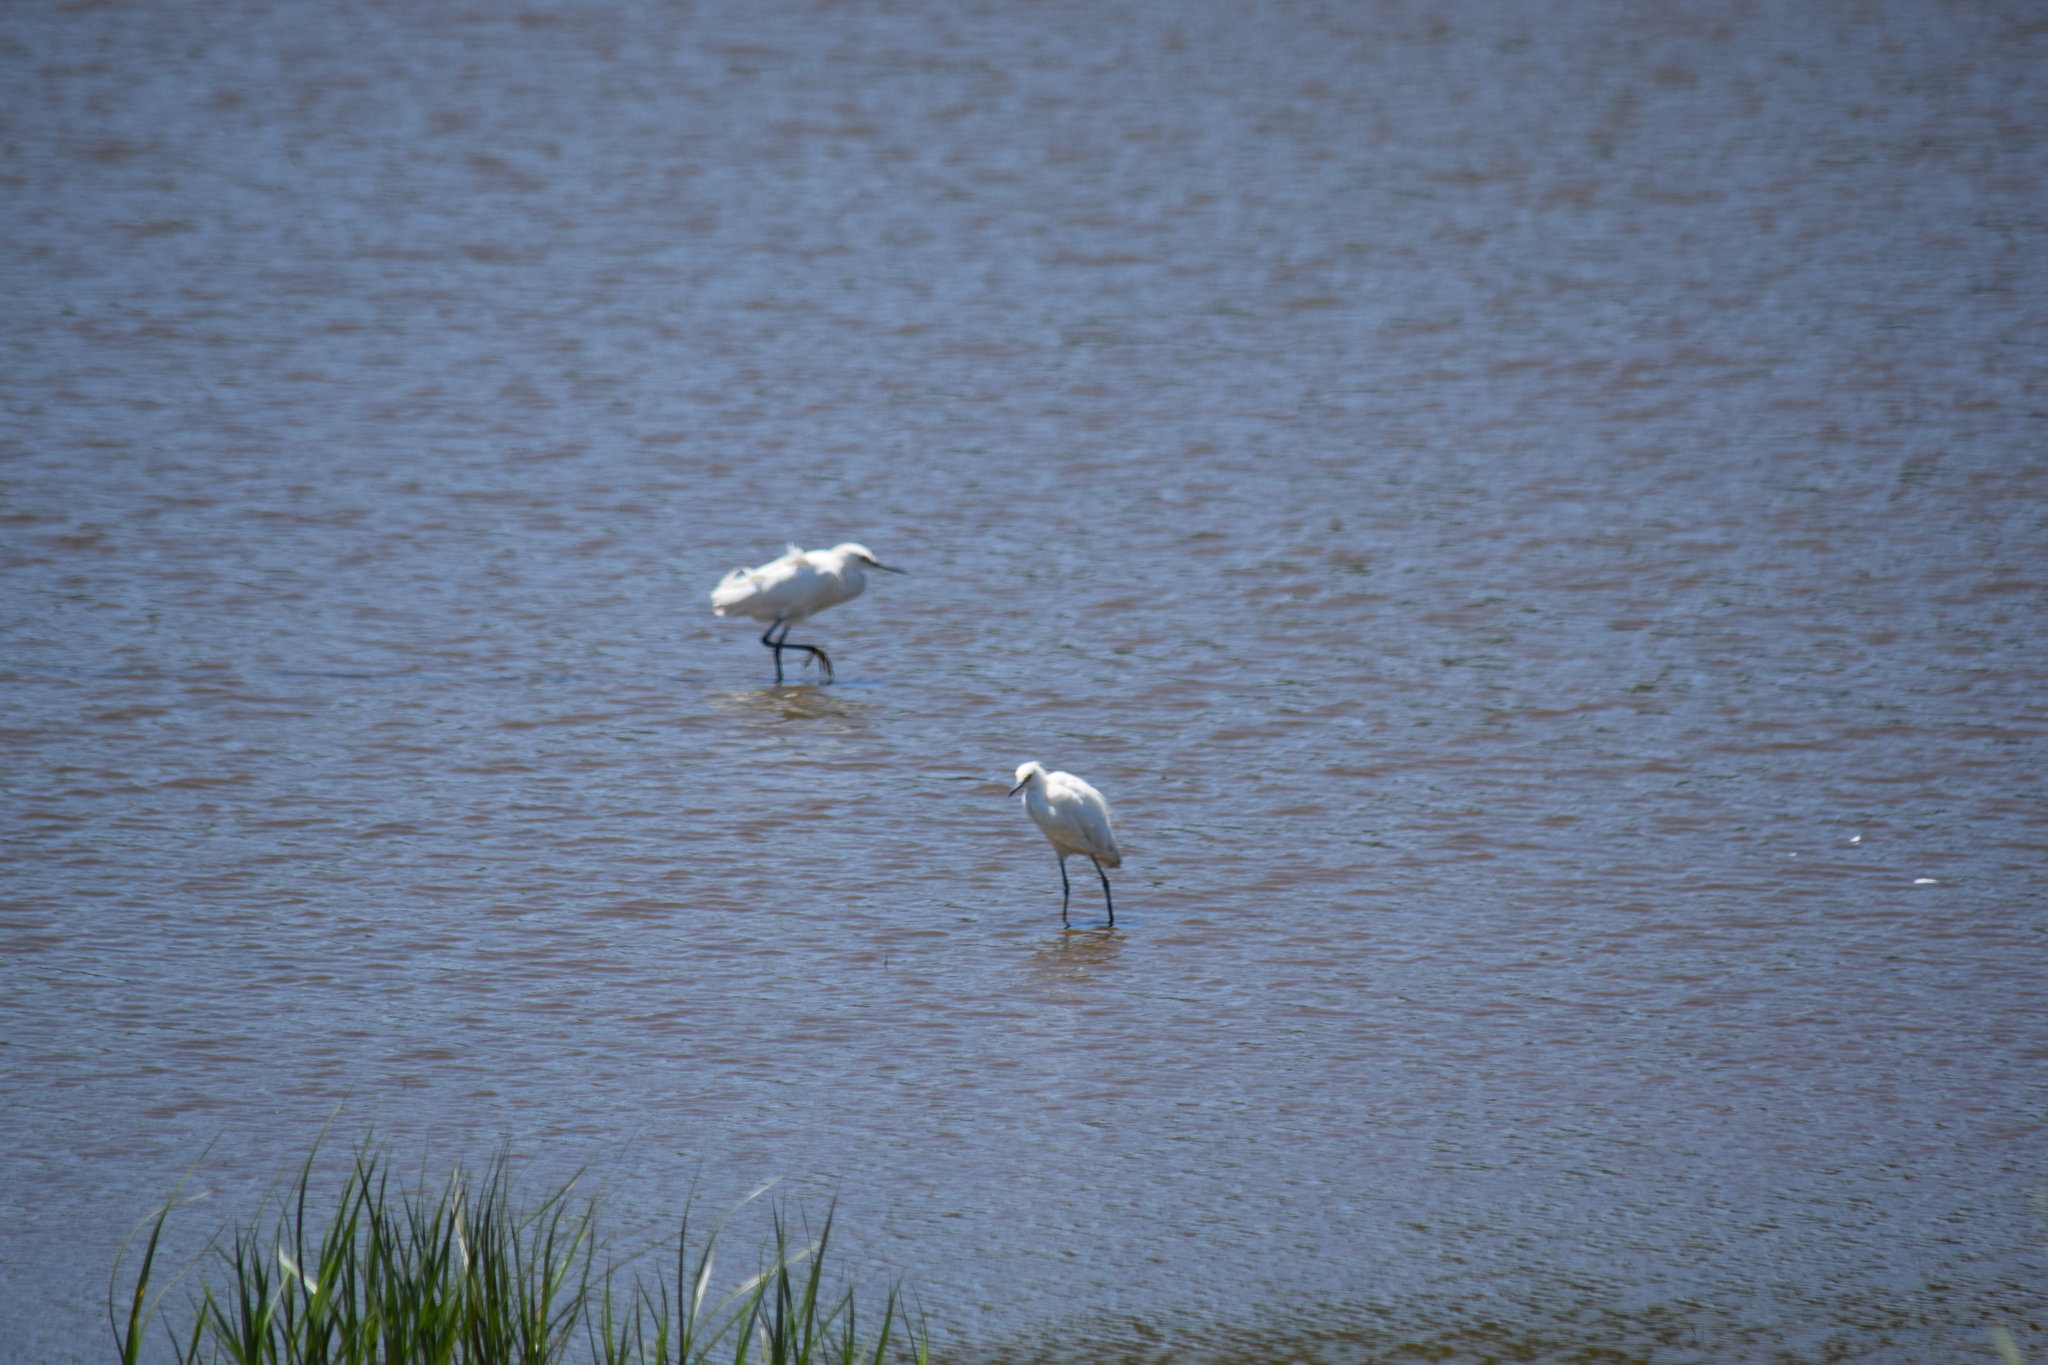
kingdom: Animalia
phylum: Chordata
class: Aves
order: Pelecaniformes
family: Ardeidae
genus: Egretta
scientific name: Egretta thula
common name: Snowy egret
